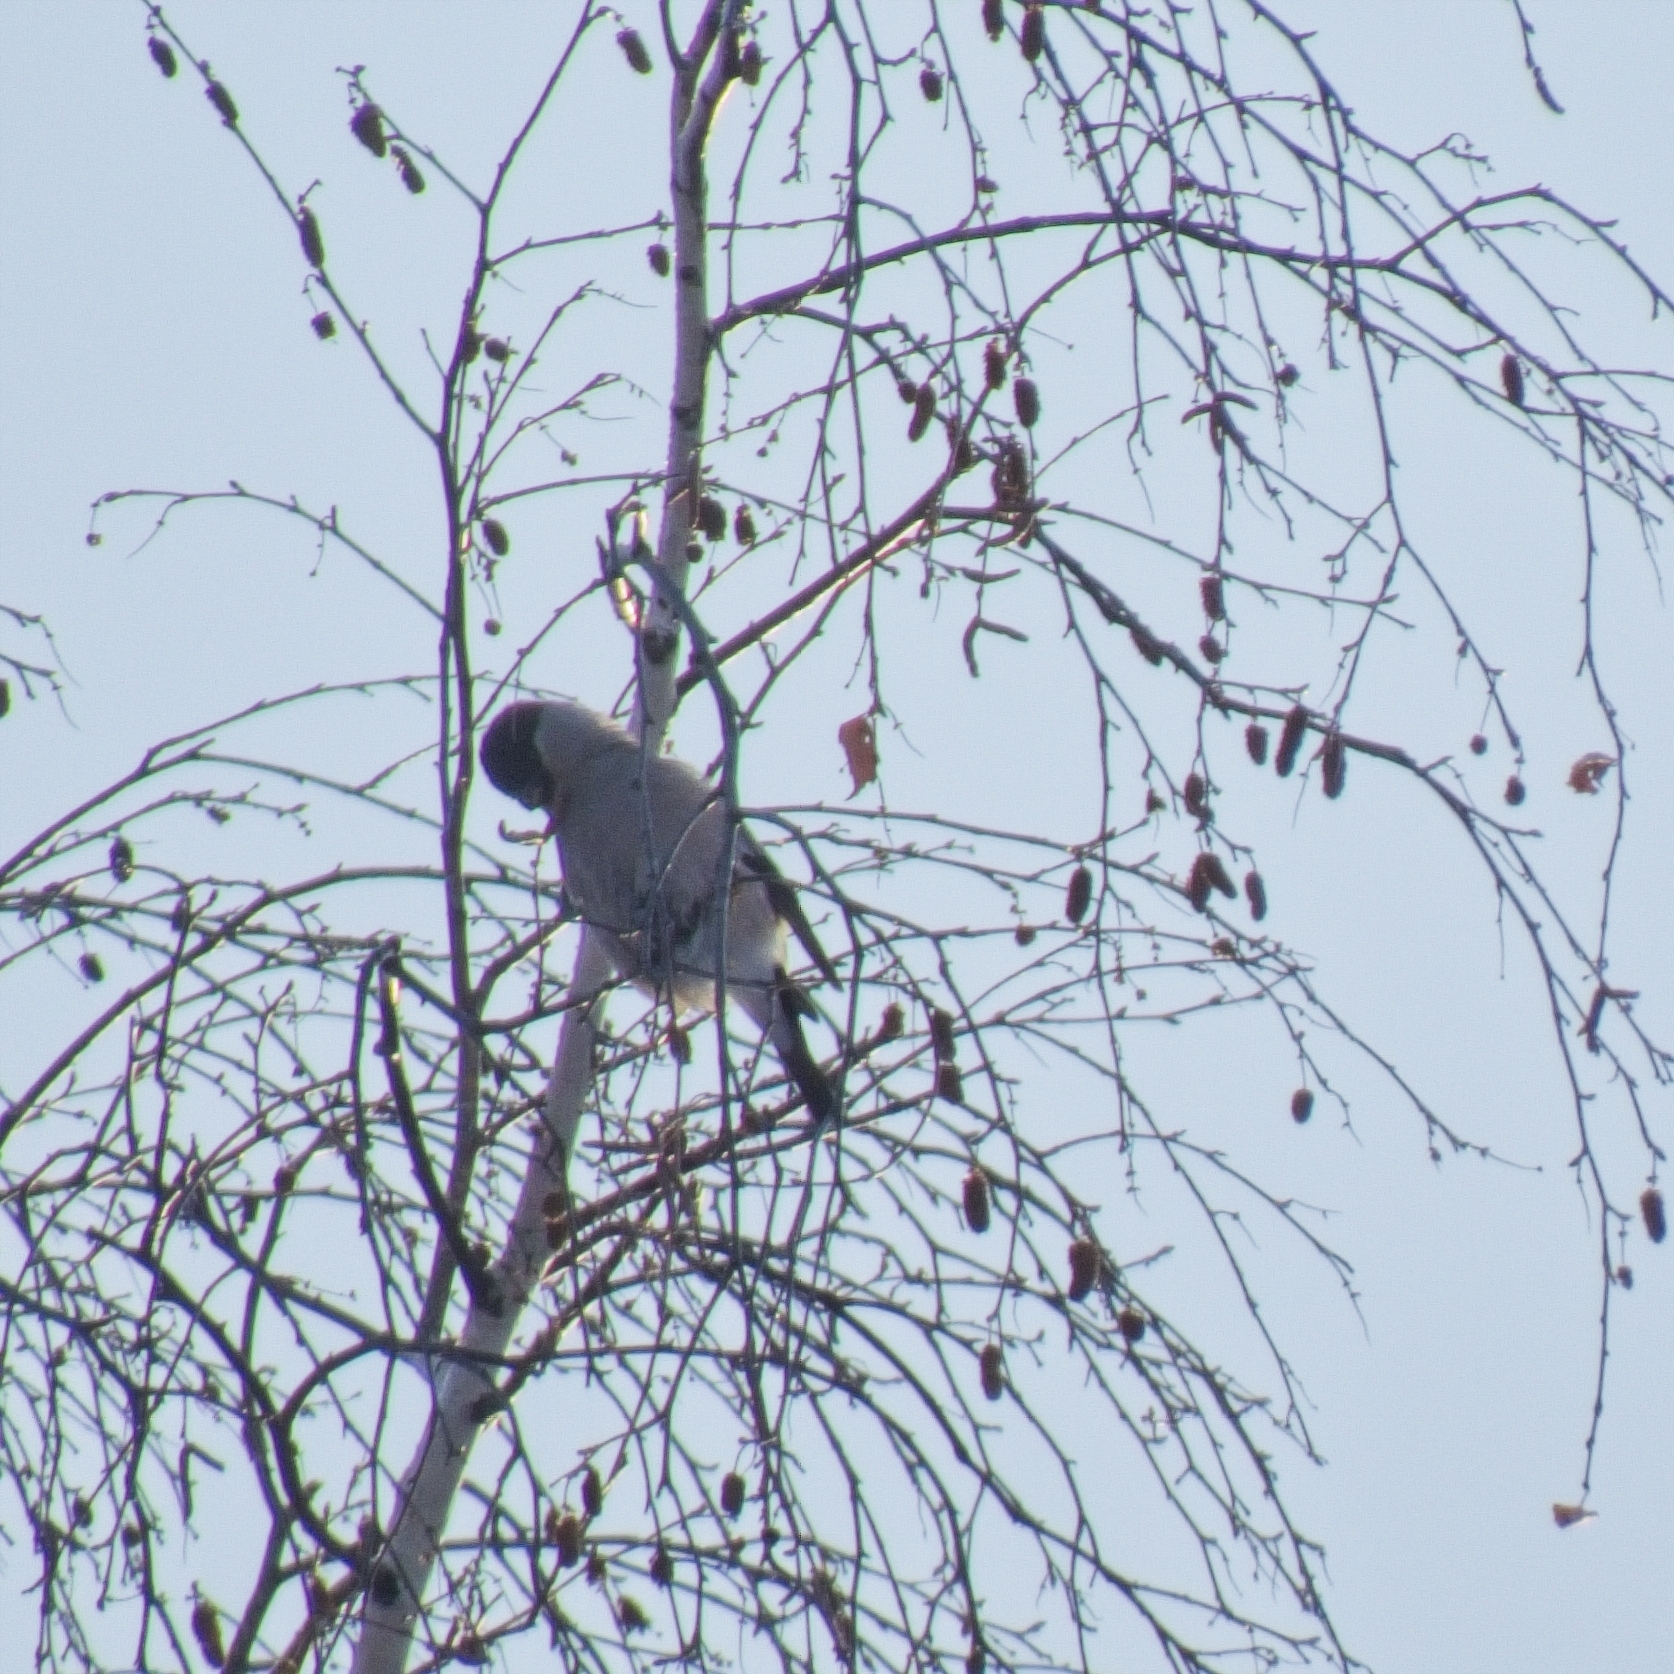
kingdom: Animalia
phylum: Chordata
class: Aves
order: Passeriformes
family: Fringillidae
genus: Pyrrhula
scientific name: Pyrrhula pyrrhula
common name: Eurasian bullfinch
